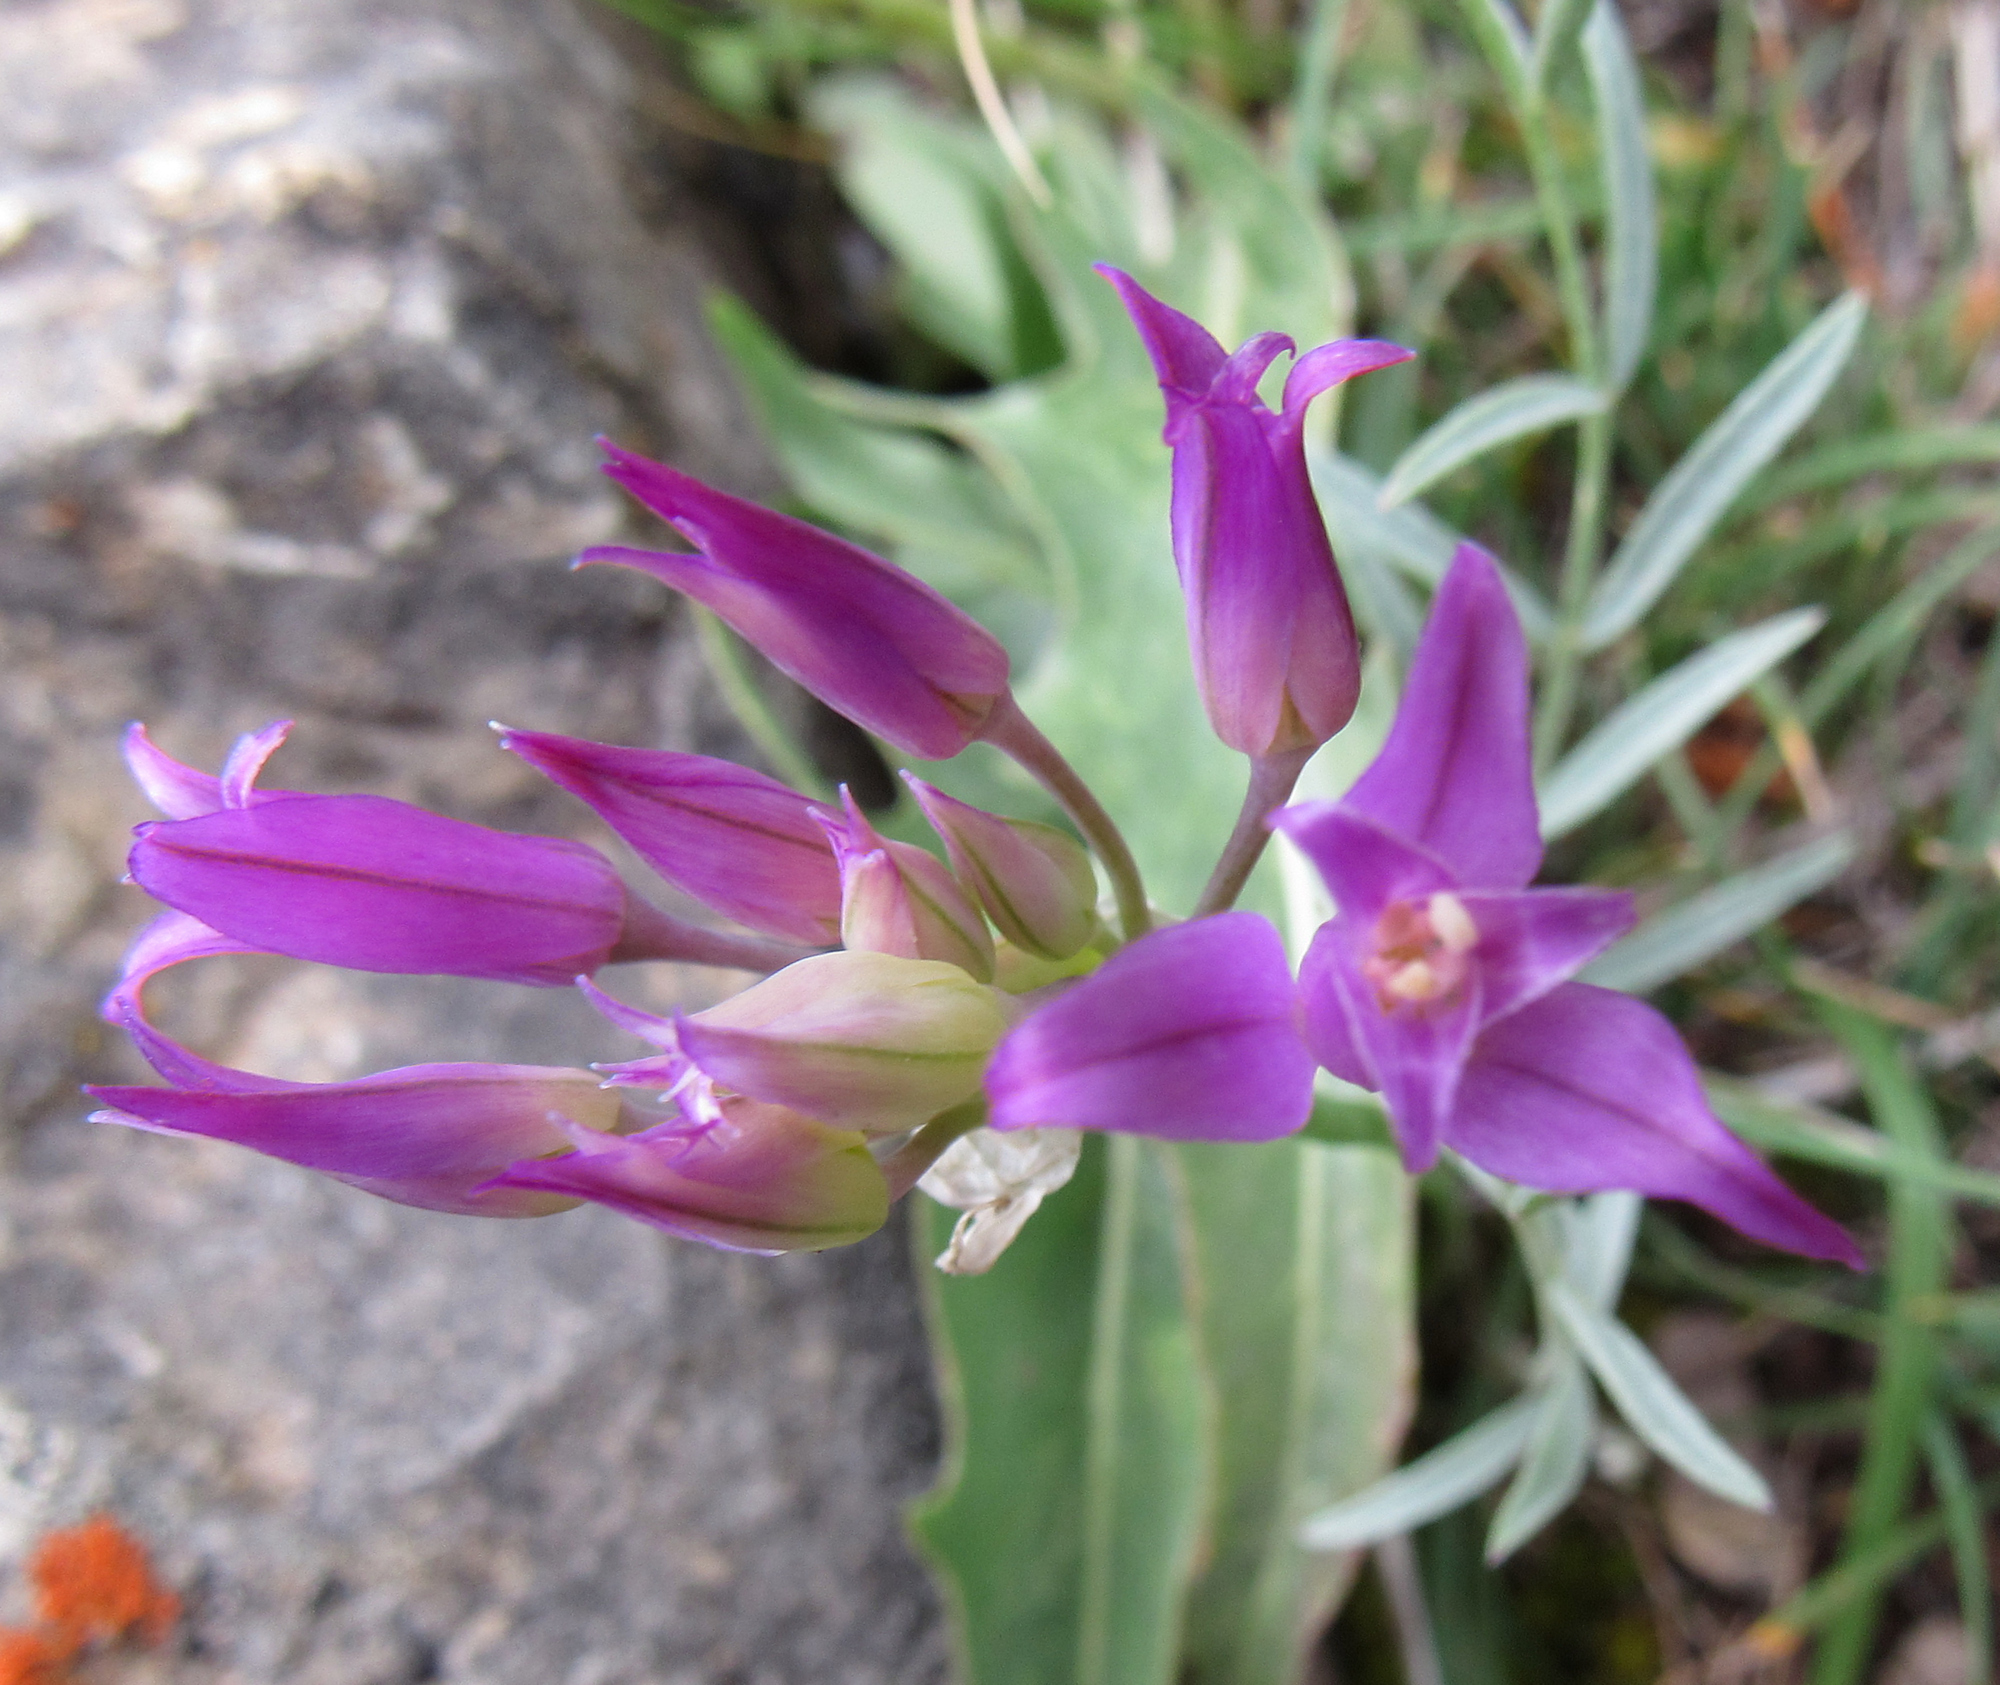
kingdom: Plantae
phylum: Tracheophyta
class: Liliopsida
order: Asparagales
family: Amaryllidaceae
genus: Allium
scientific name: Allium acuminatum
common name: Hooker's onion
